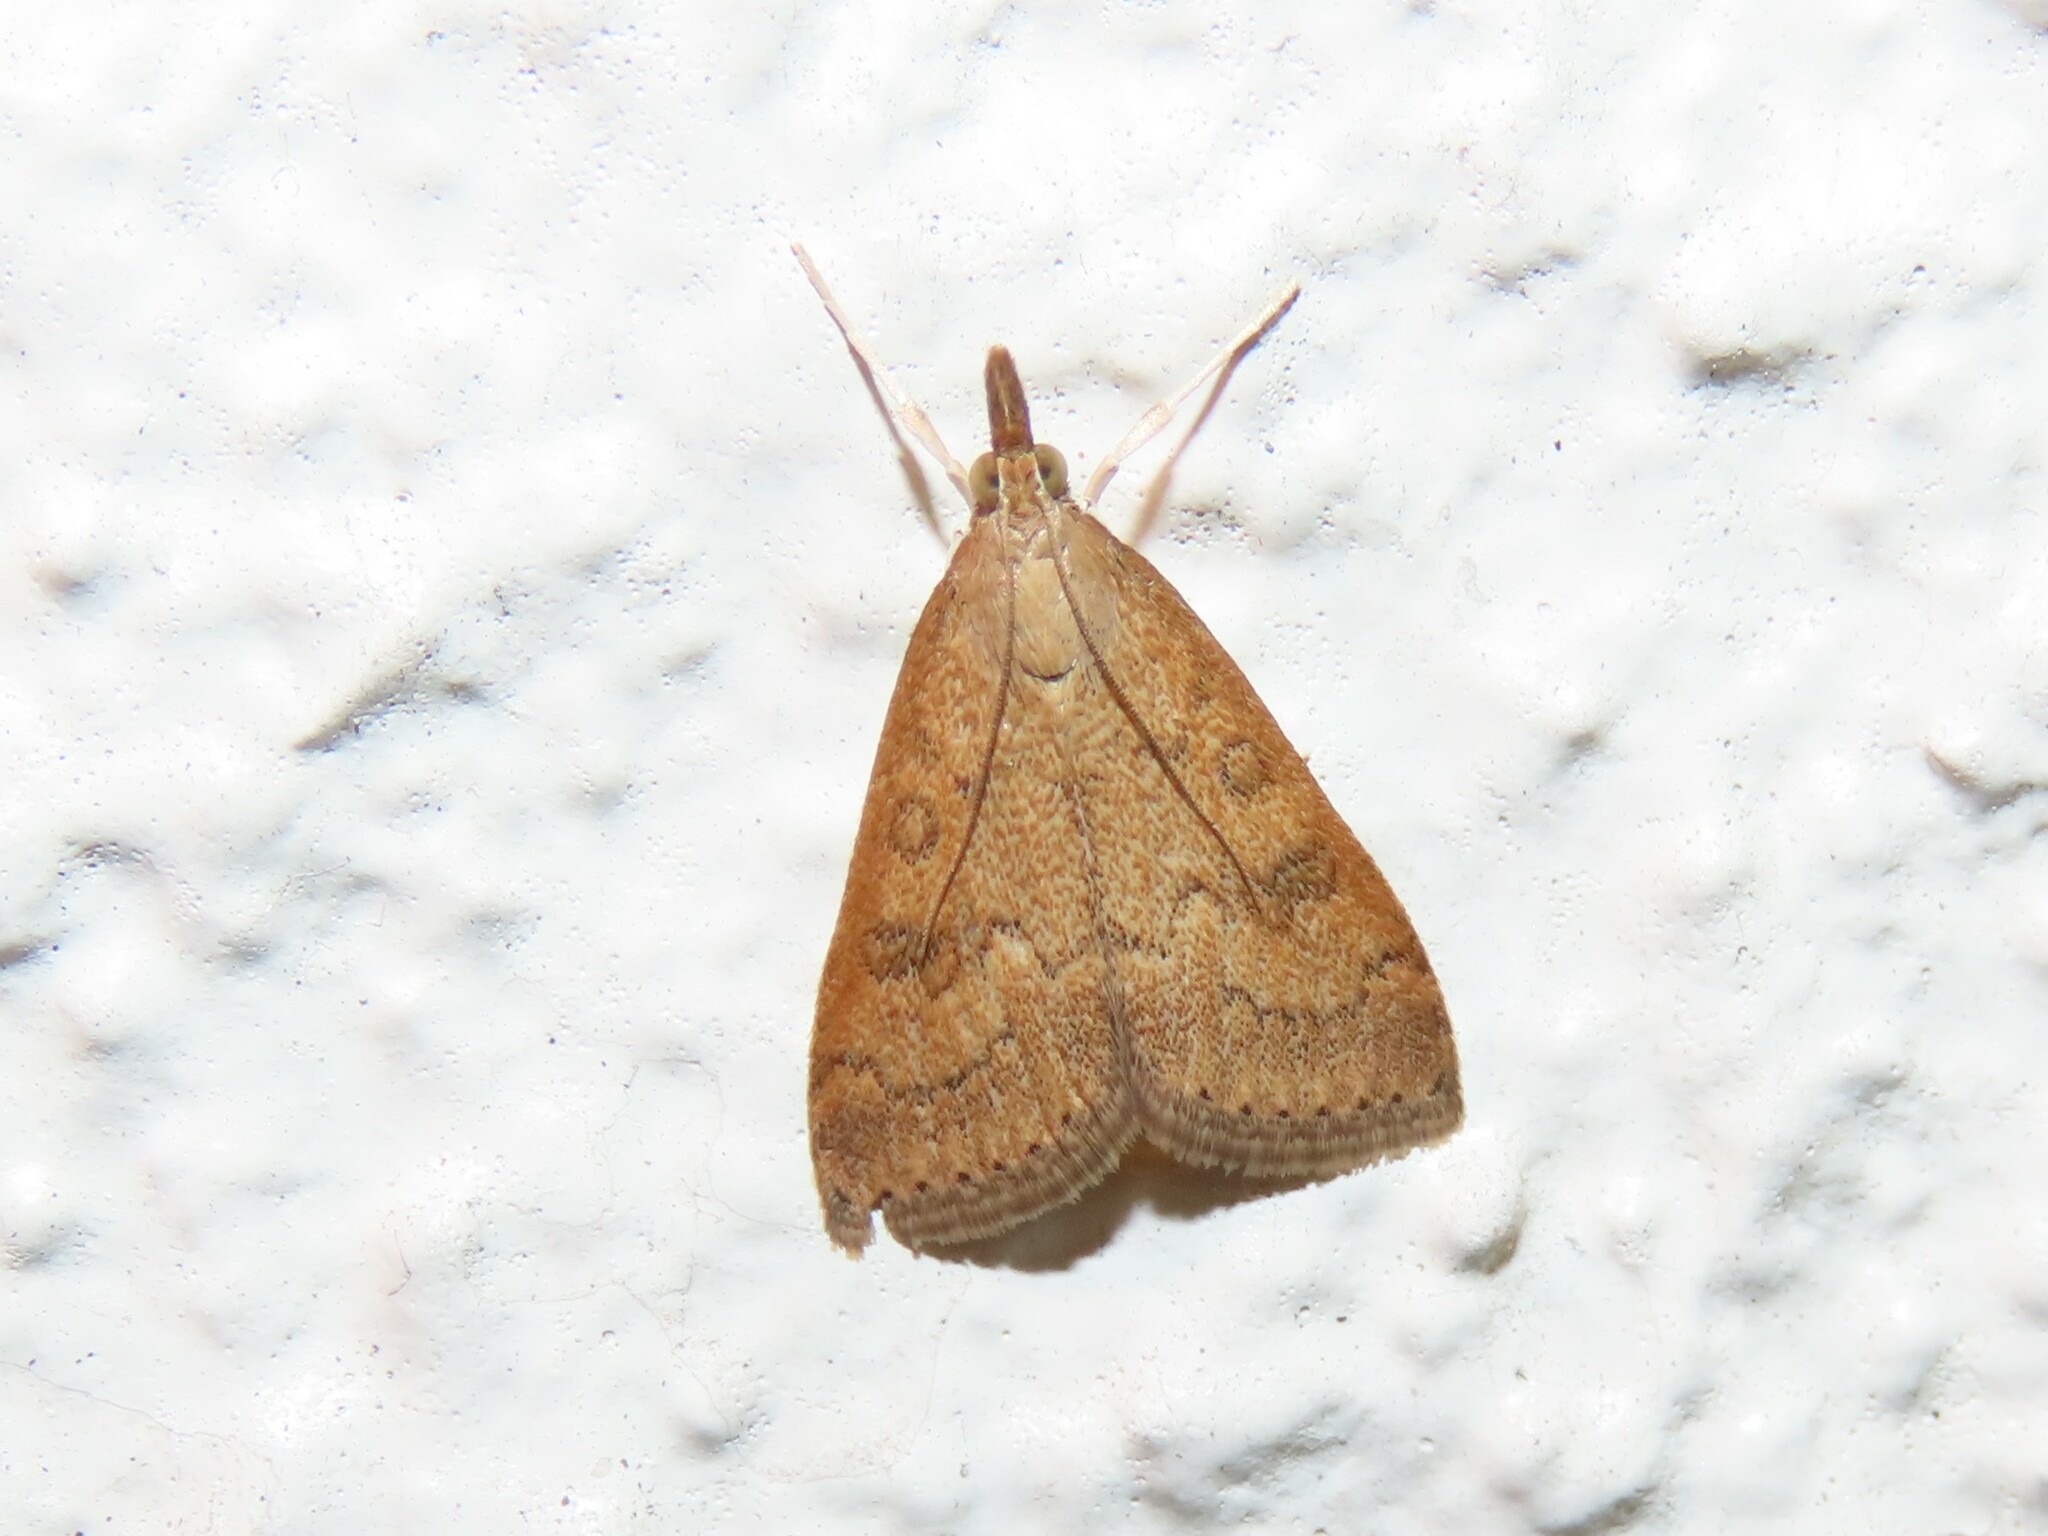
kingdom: Animalia
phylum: Arthropoda
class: Insecta
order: Lepidoptera
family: Crambidae
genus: Udea
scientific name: Udea rubigalis
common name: Celery leaftier moth
